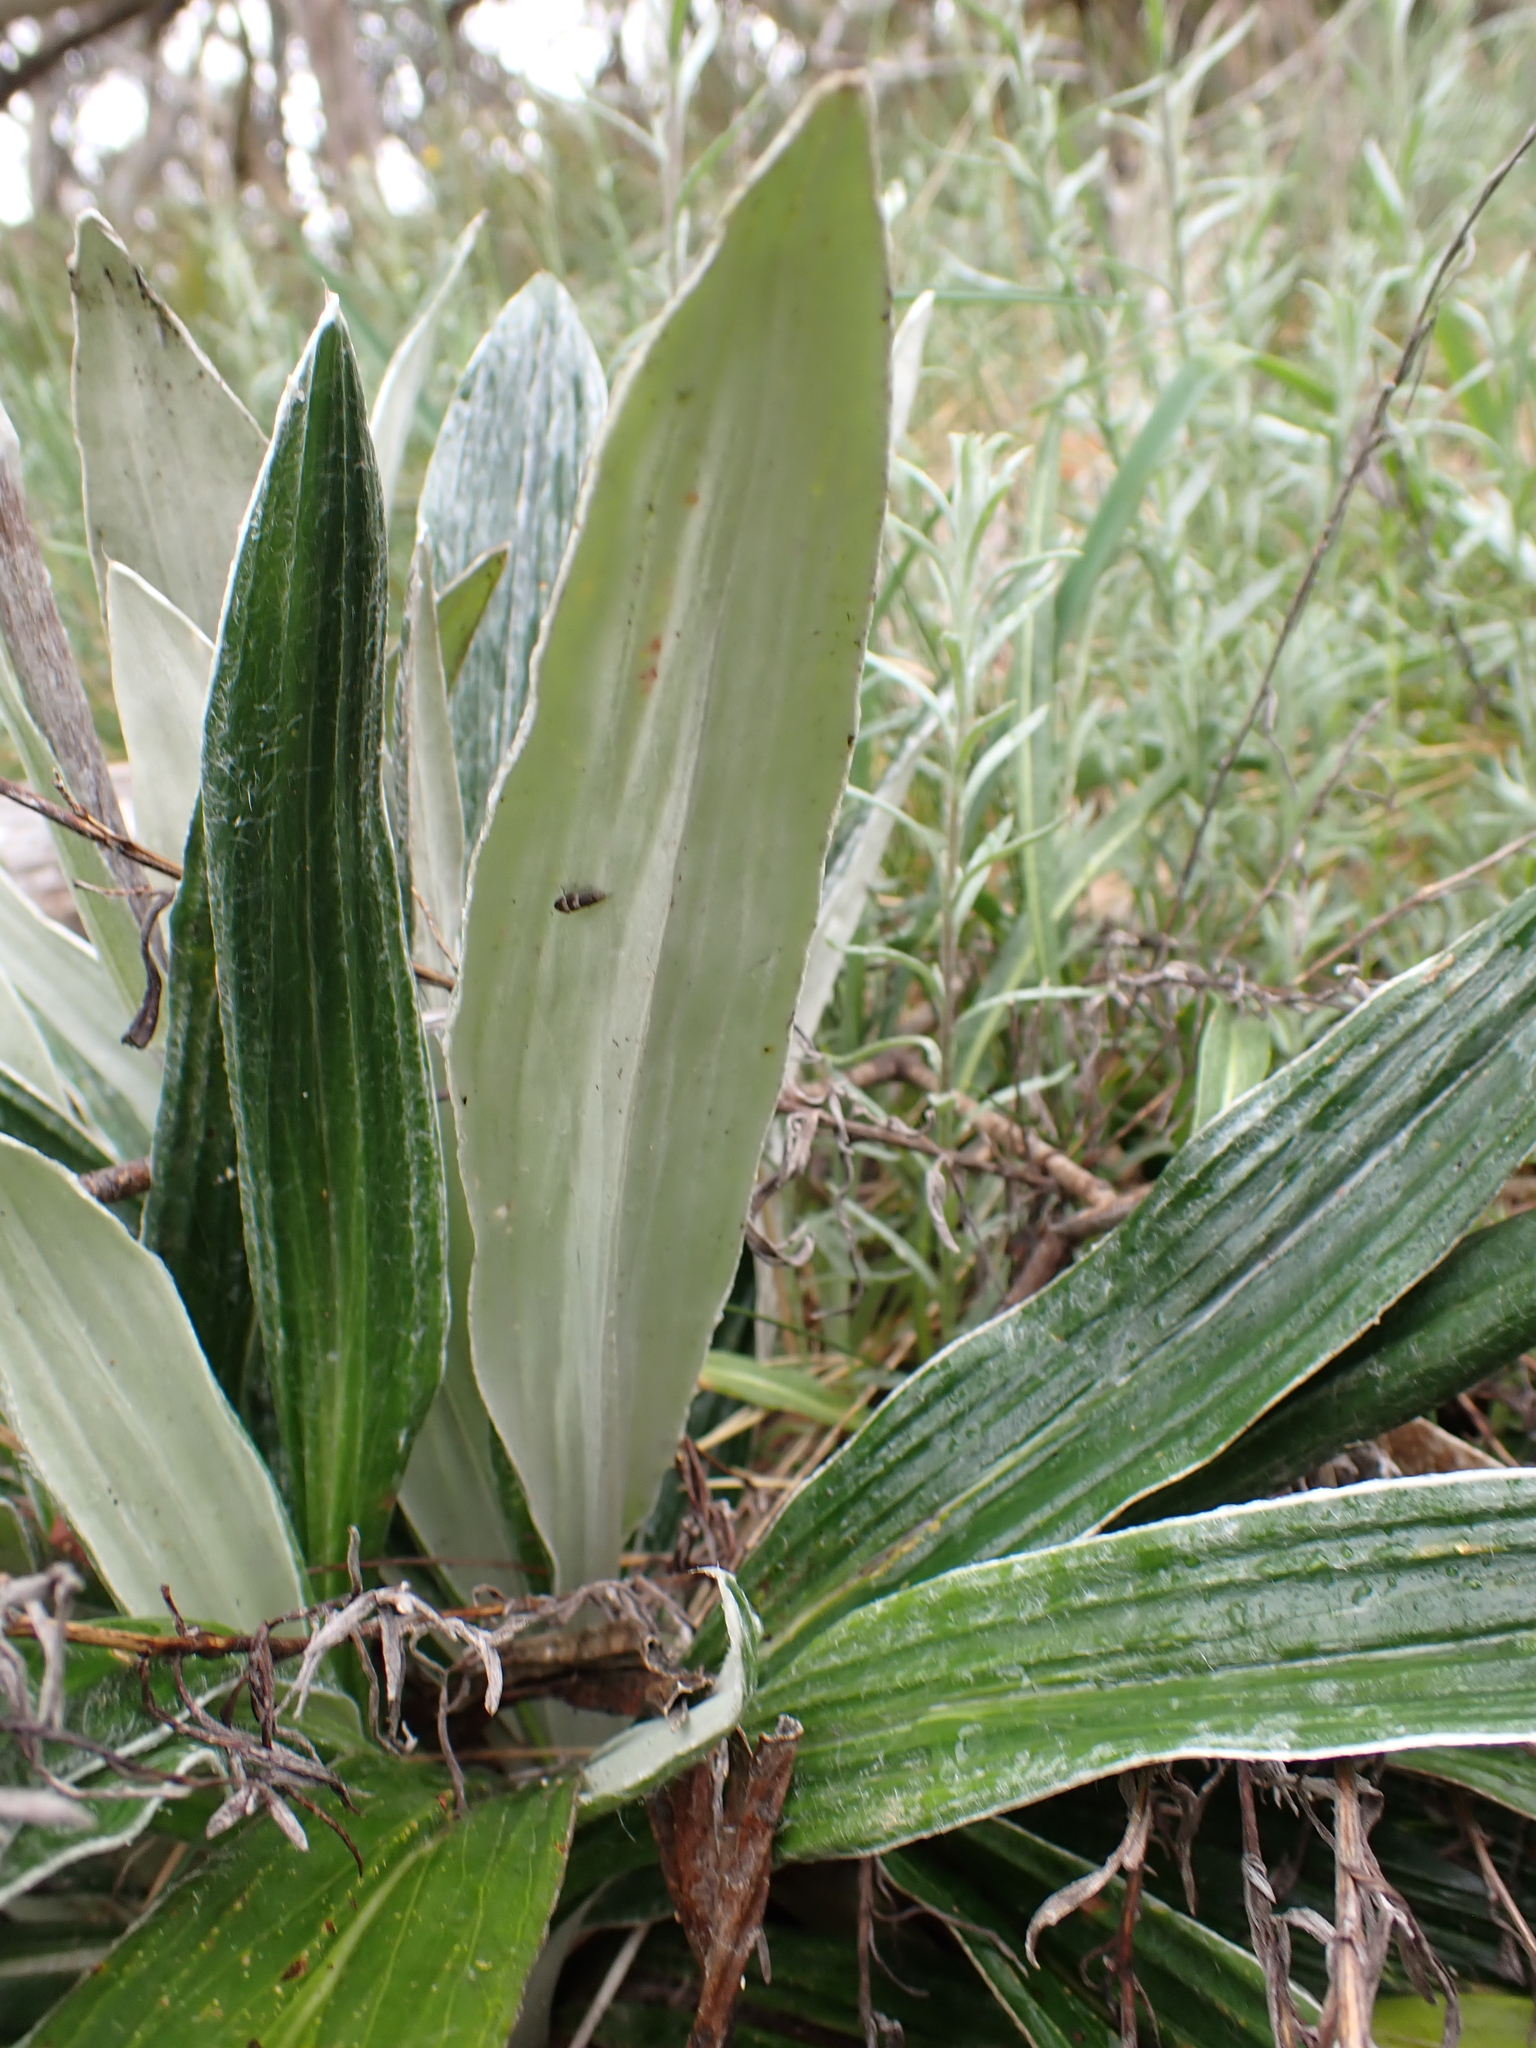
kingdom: Plantae
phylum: Tracheophyta
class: Magnoliopsida
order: Asterales
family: Asteraceae
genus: Celmisia
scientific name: Celmisia latifolia
